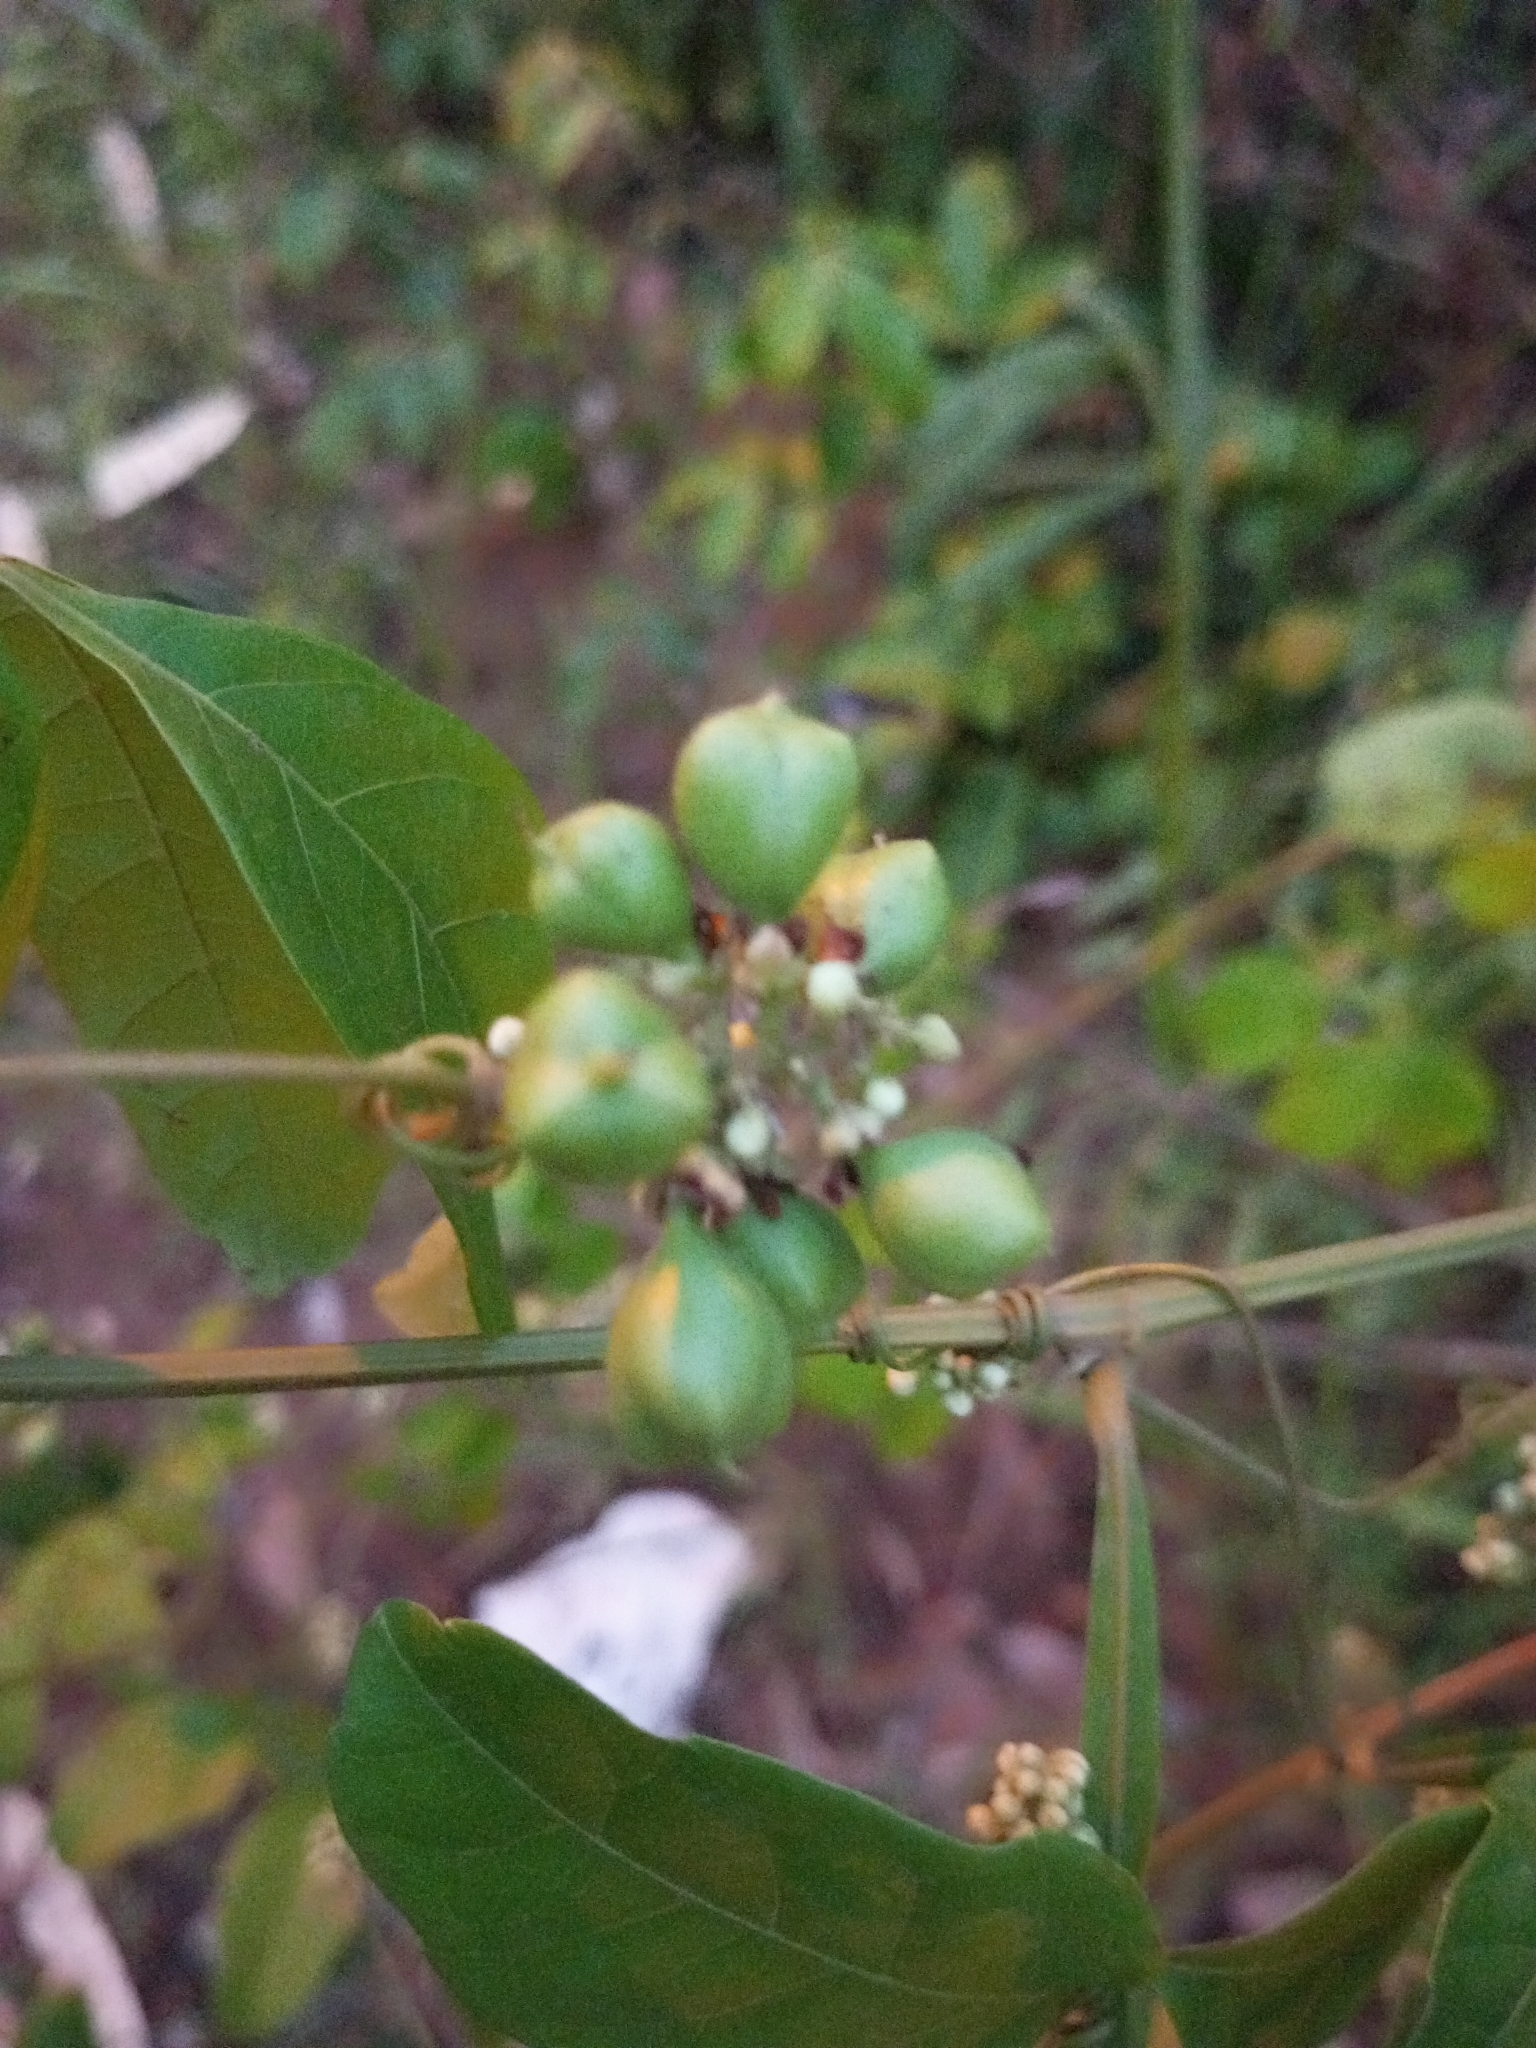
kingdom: Plantae
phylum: Tracheophyta
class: Magnoliopsida
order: Sapindales
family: Sapindaceae
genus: Paullinia
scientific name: Paullinia pinnata
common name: Barbasco
